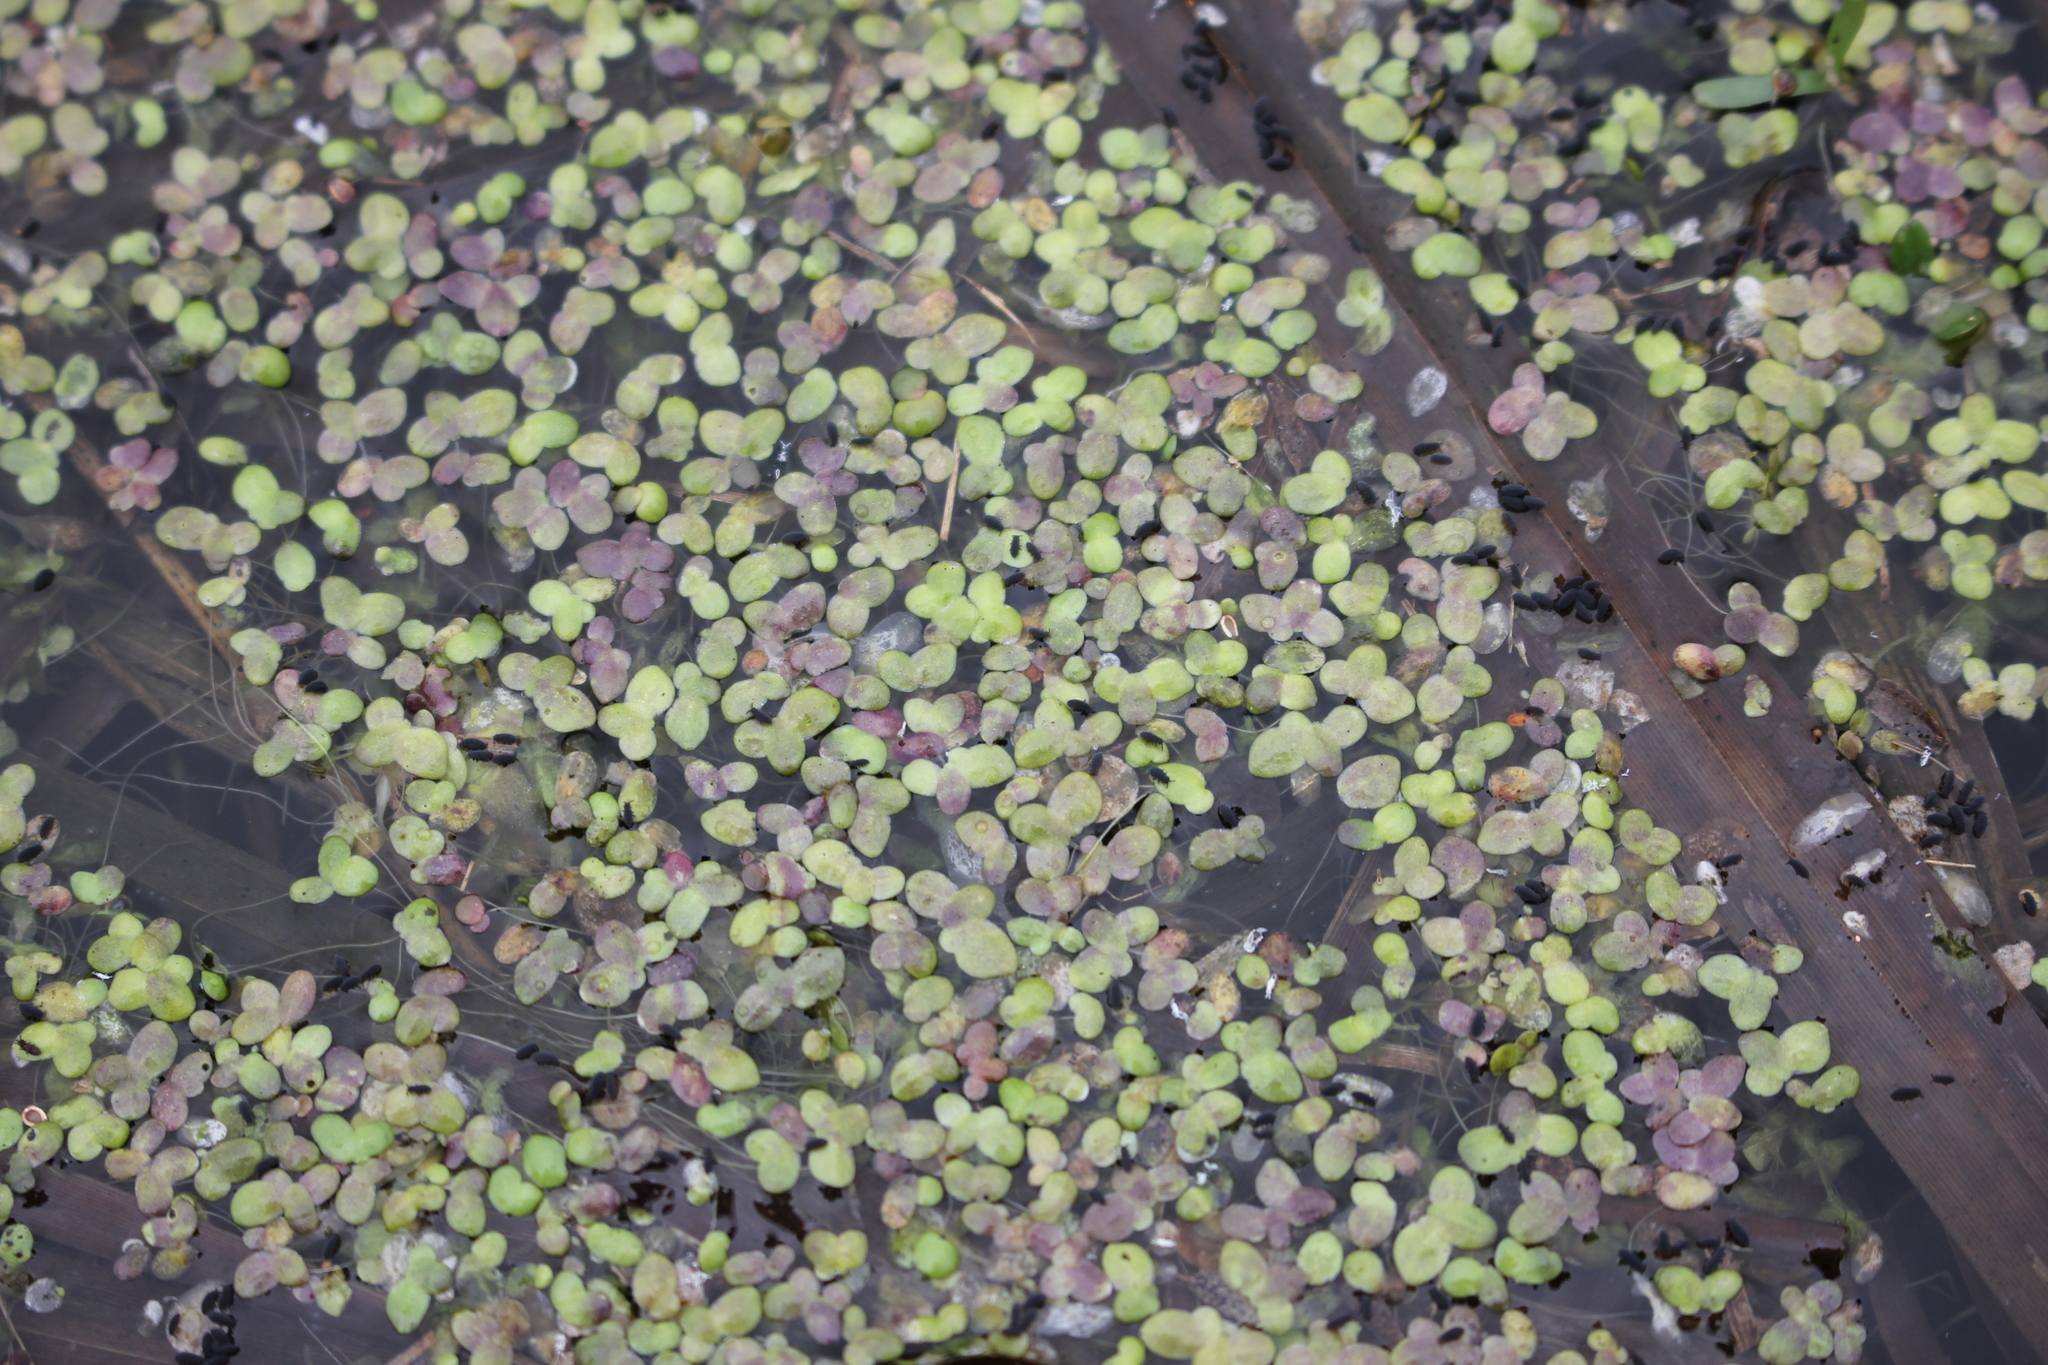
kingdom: Plantae
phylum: Tracheophyta
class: Liliopsida
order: Alismatales
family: Araceae
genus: Lemna
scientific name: Lemna minor
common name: Common duckweed
